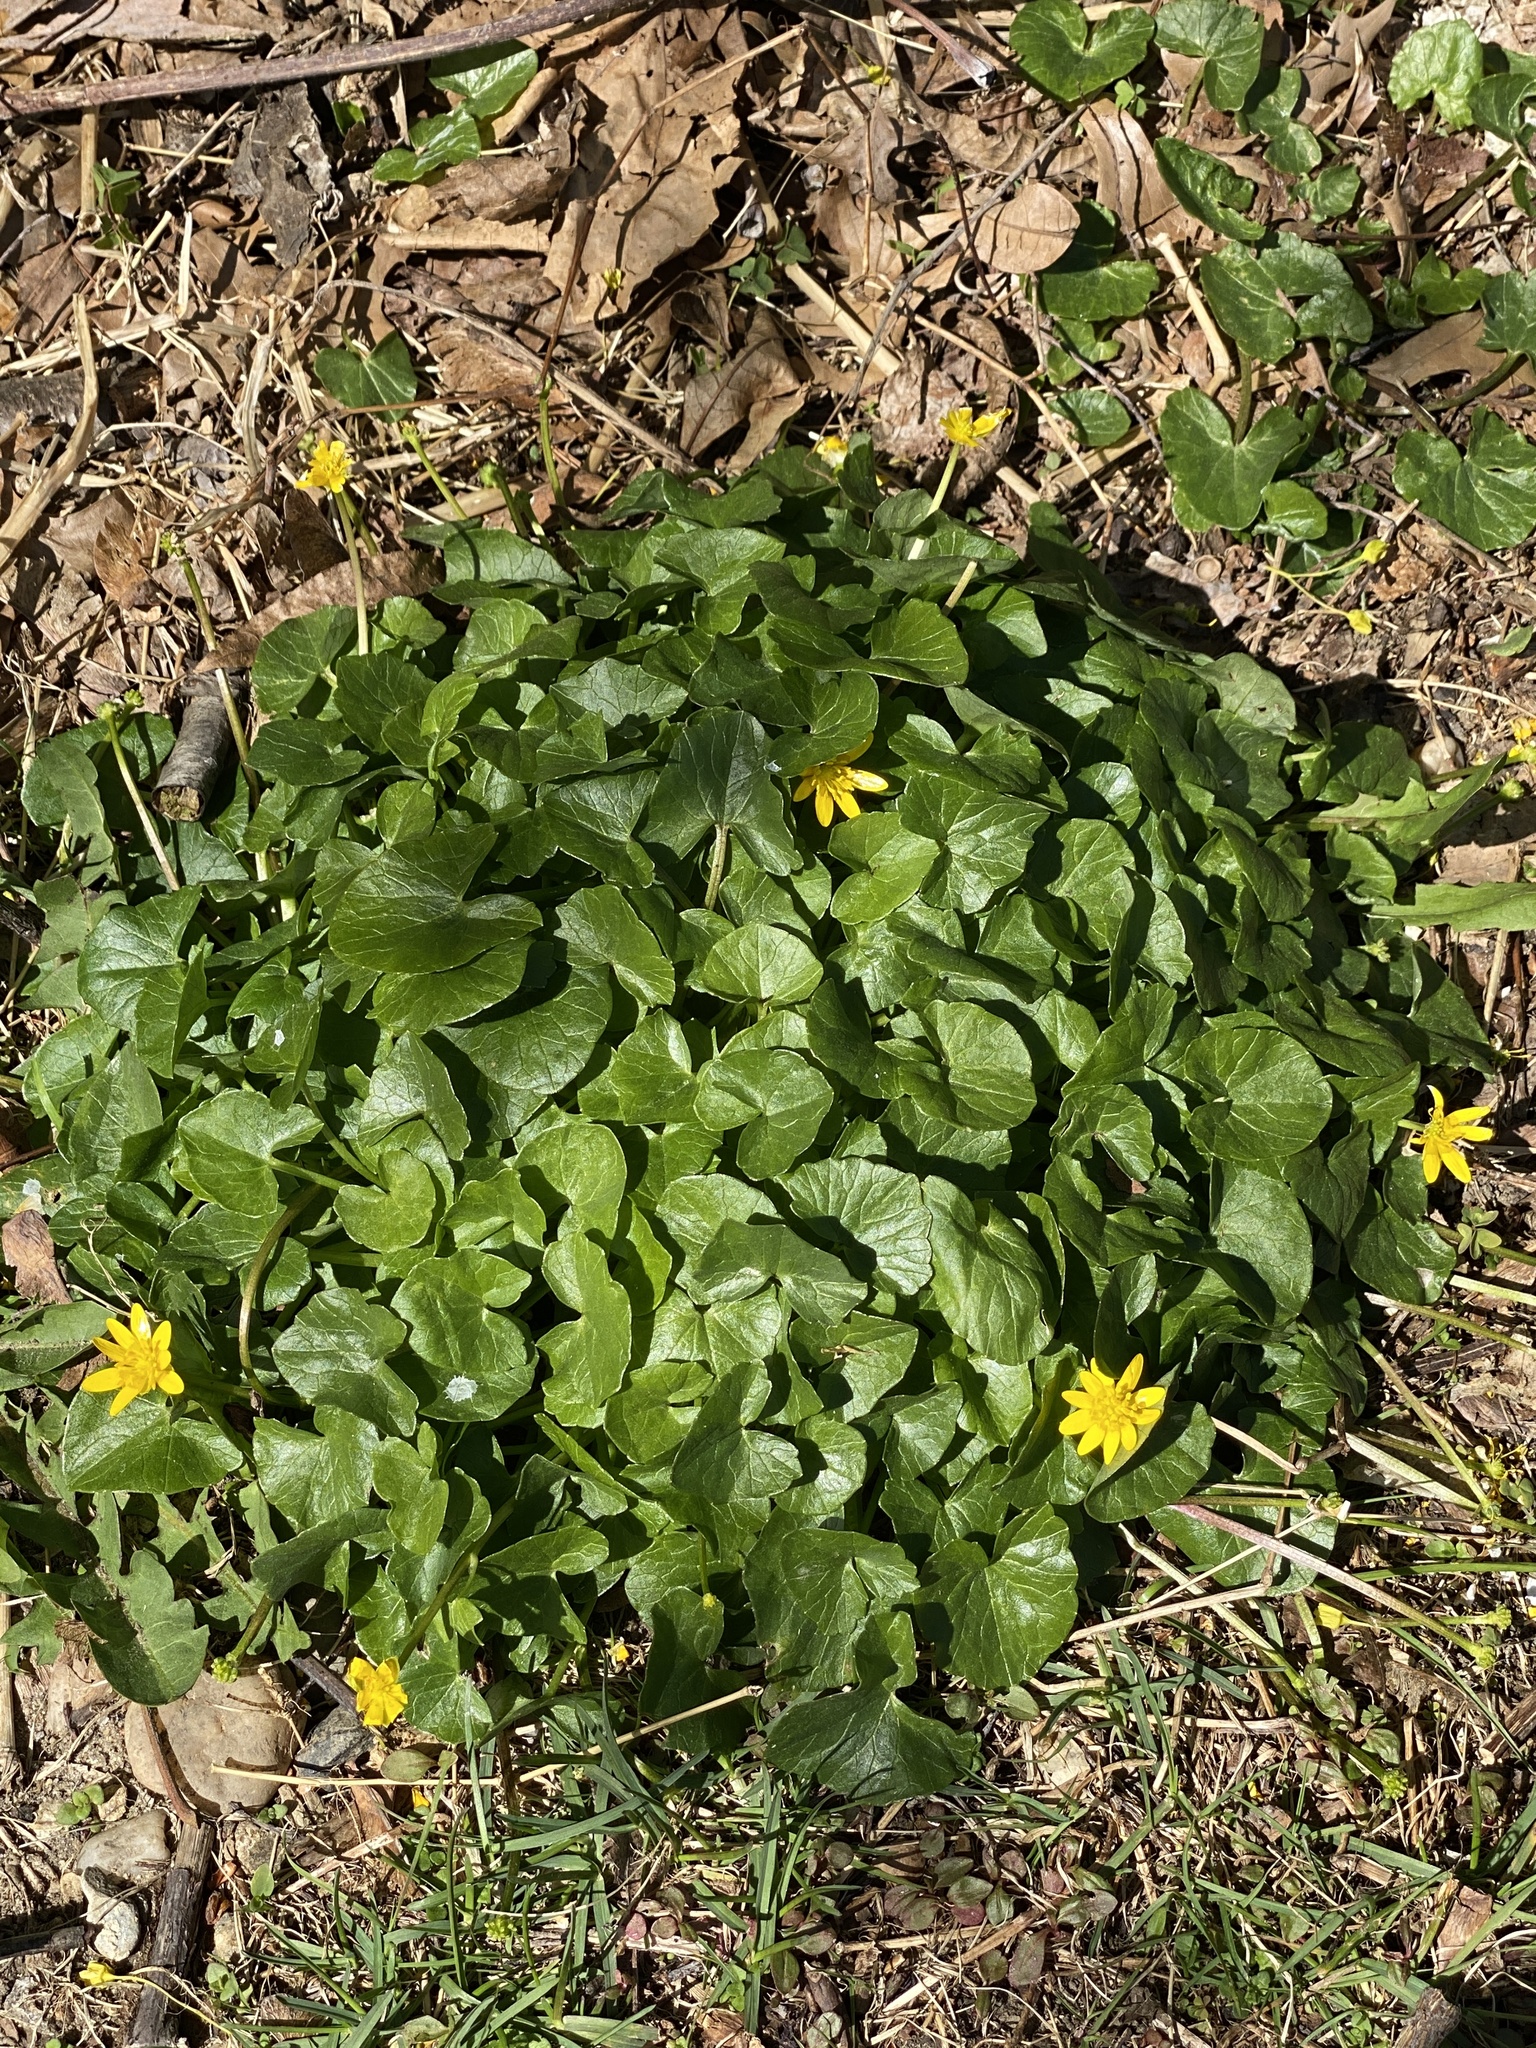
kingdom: Plantae
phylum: Tracheophyta
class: Magnoliopsida
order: Ranunculales
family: Ranunculaceae
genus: Ficaria
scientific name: Ficaria verna
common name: Lesser celandine
